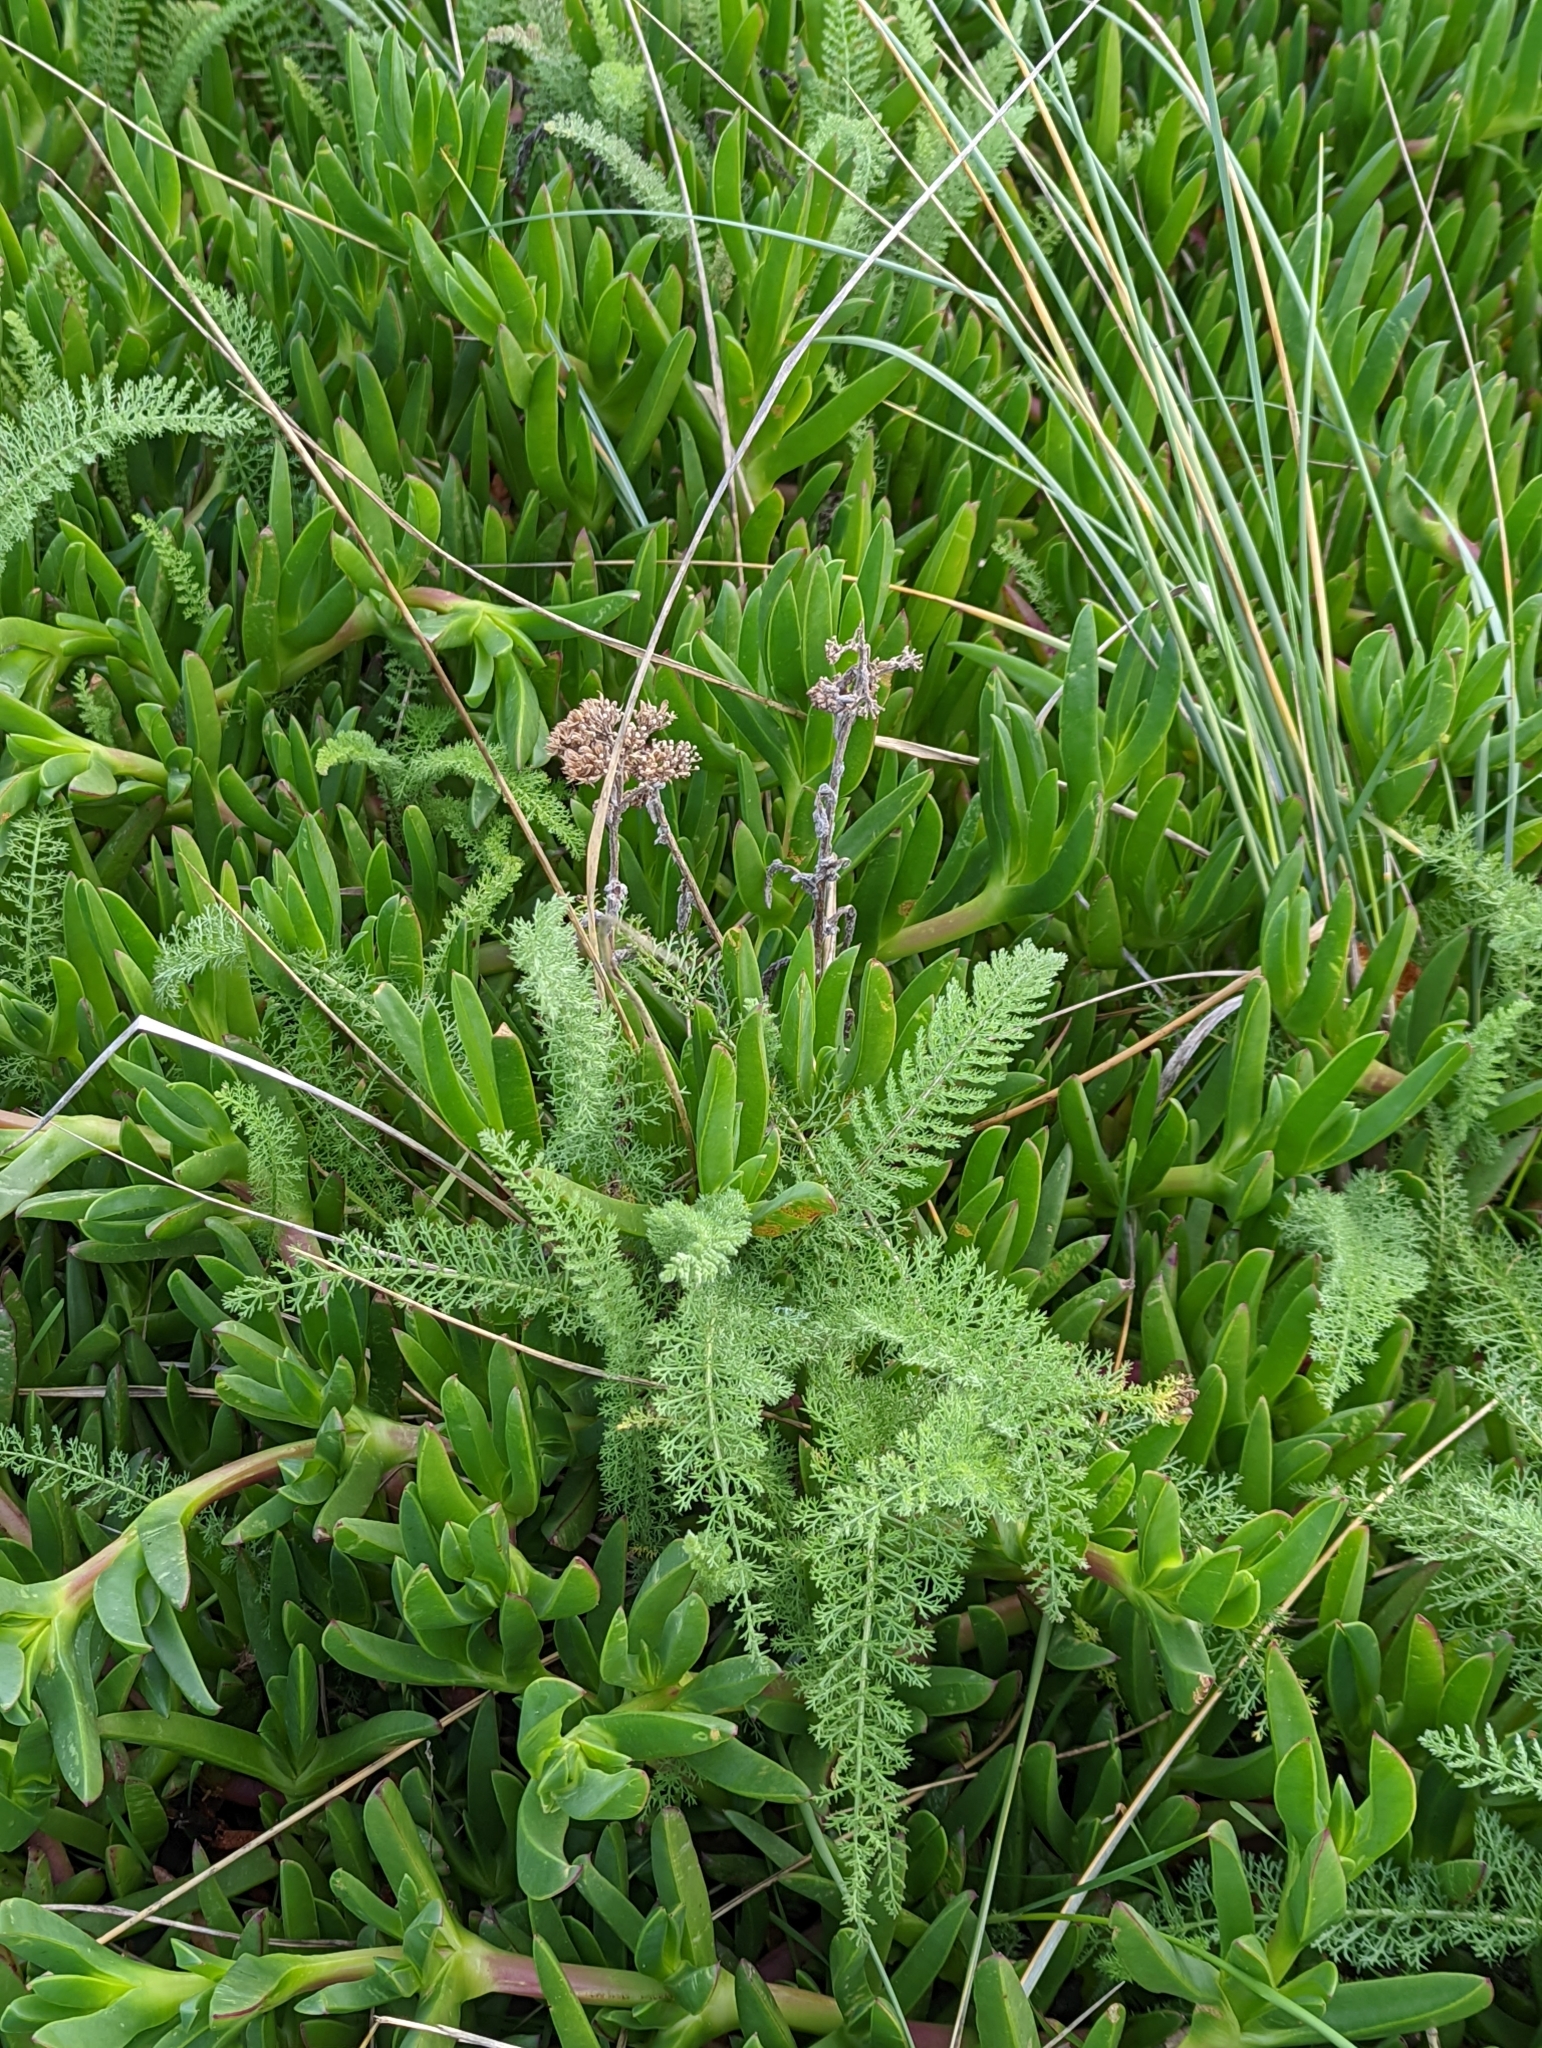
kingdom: Plantae
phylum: Tracheophyta
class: Magnoliopsida
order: Asterales
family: Asteraceae
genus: Achillea
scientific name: Achillea millefolium
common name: Yarrow
